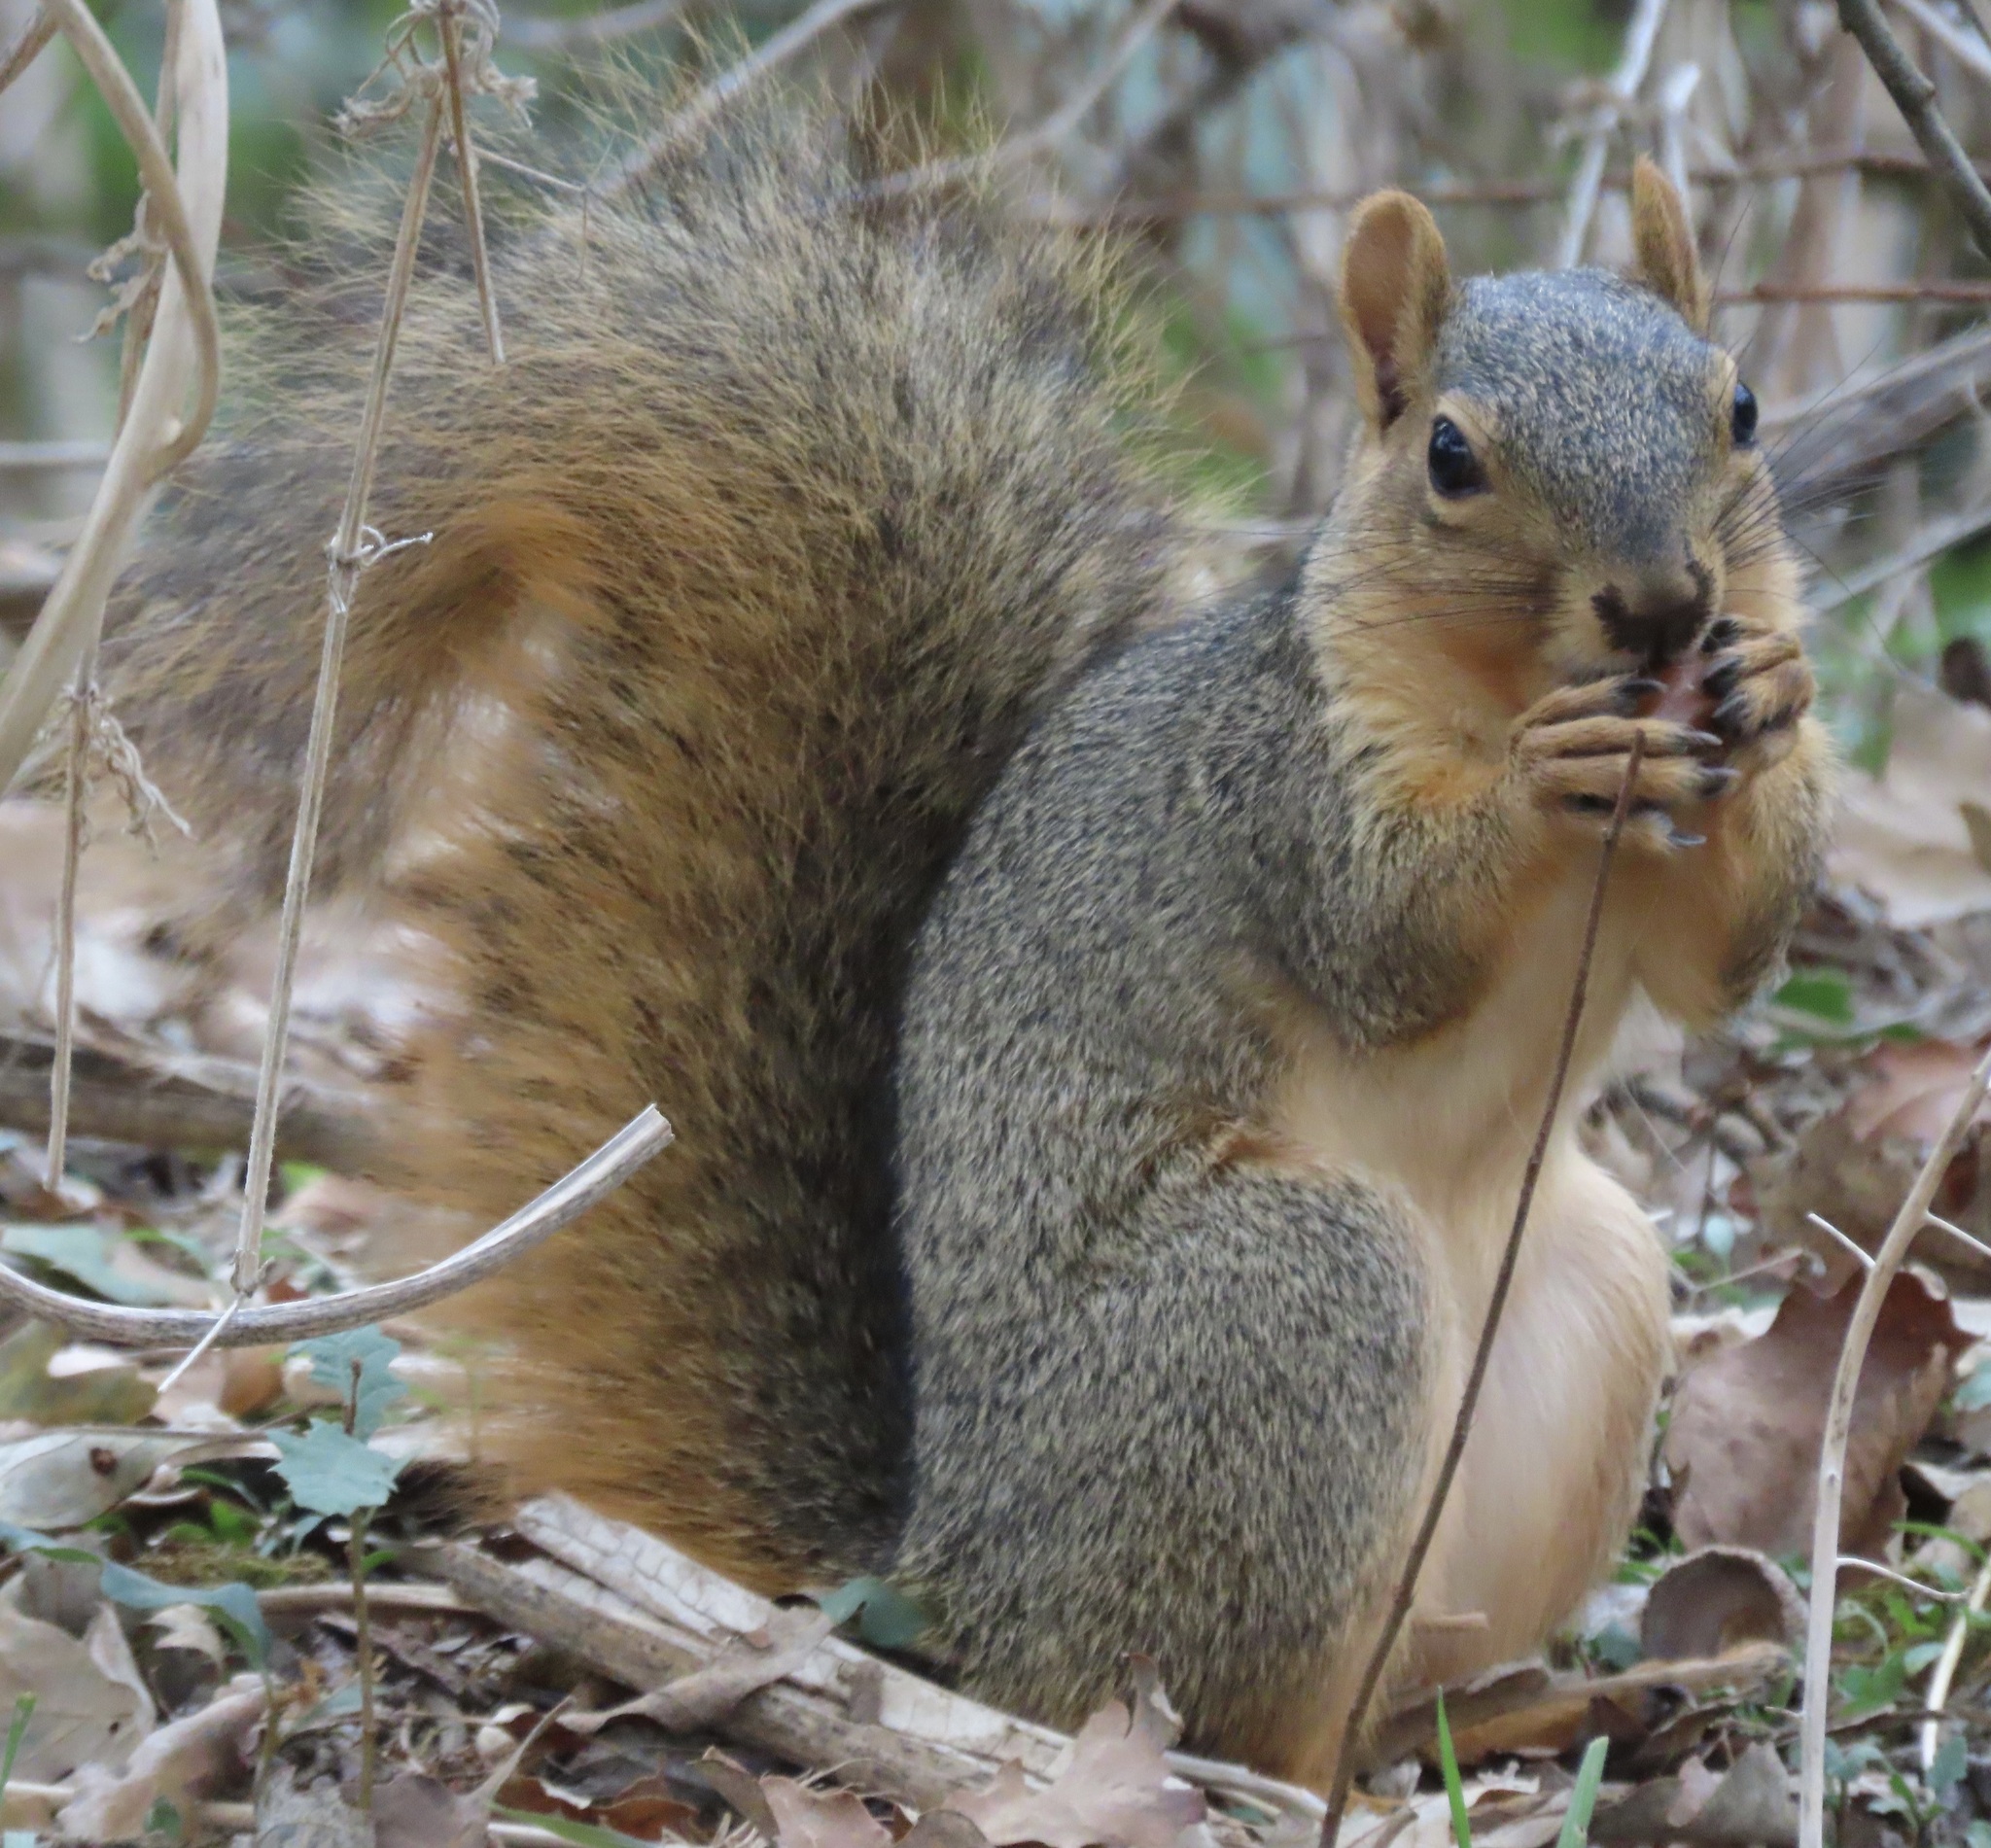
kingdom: Animalia
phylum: Chordata
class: Mammalia
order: Rodentia
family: Sciuridae
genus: Sciurus
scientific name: Sciurus niger
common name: Fox squirrel
